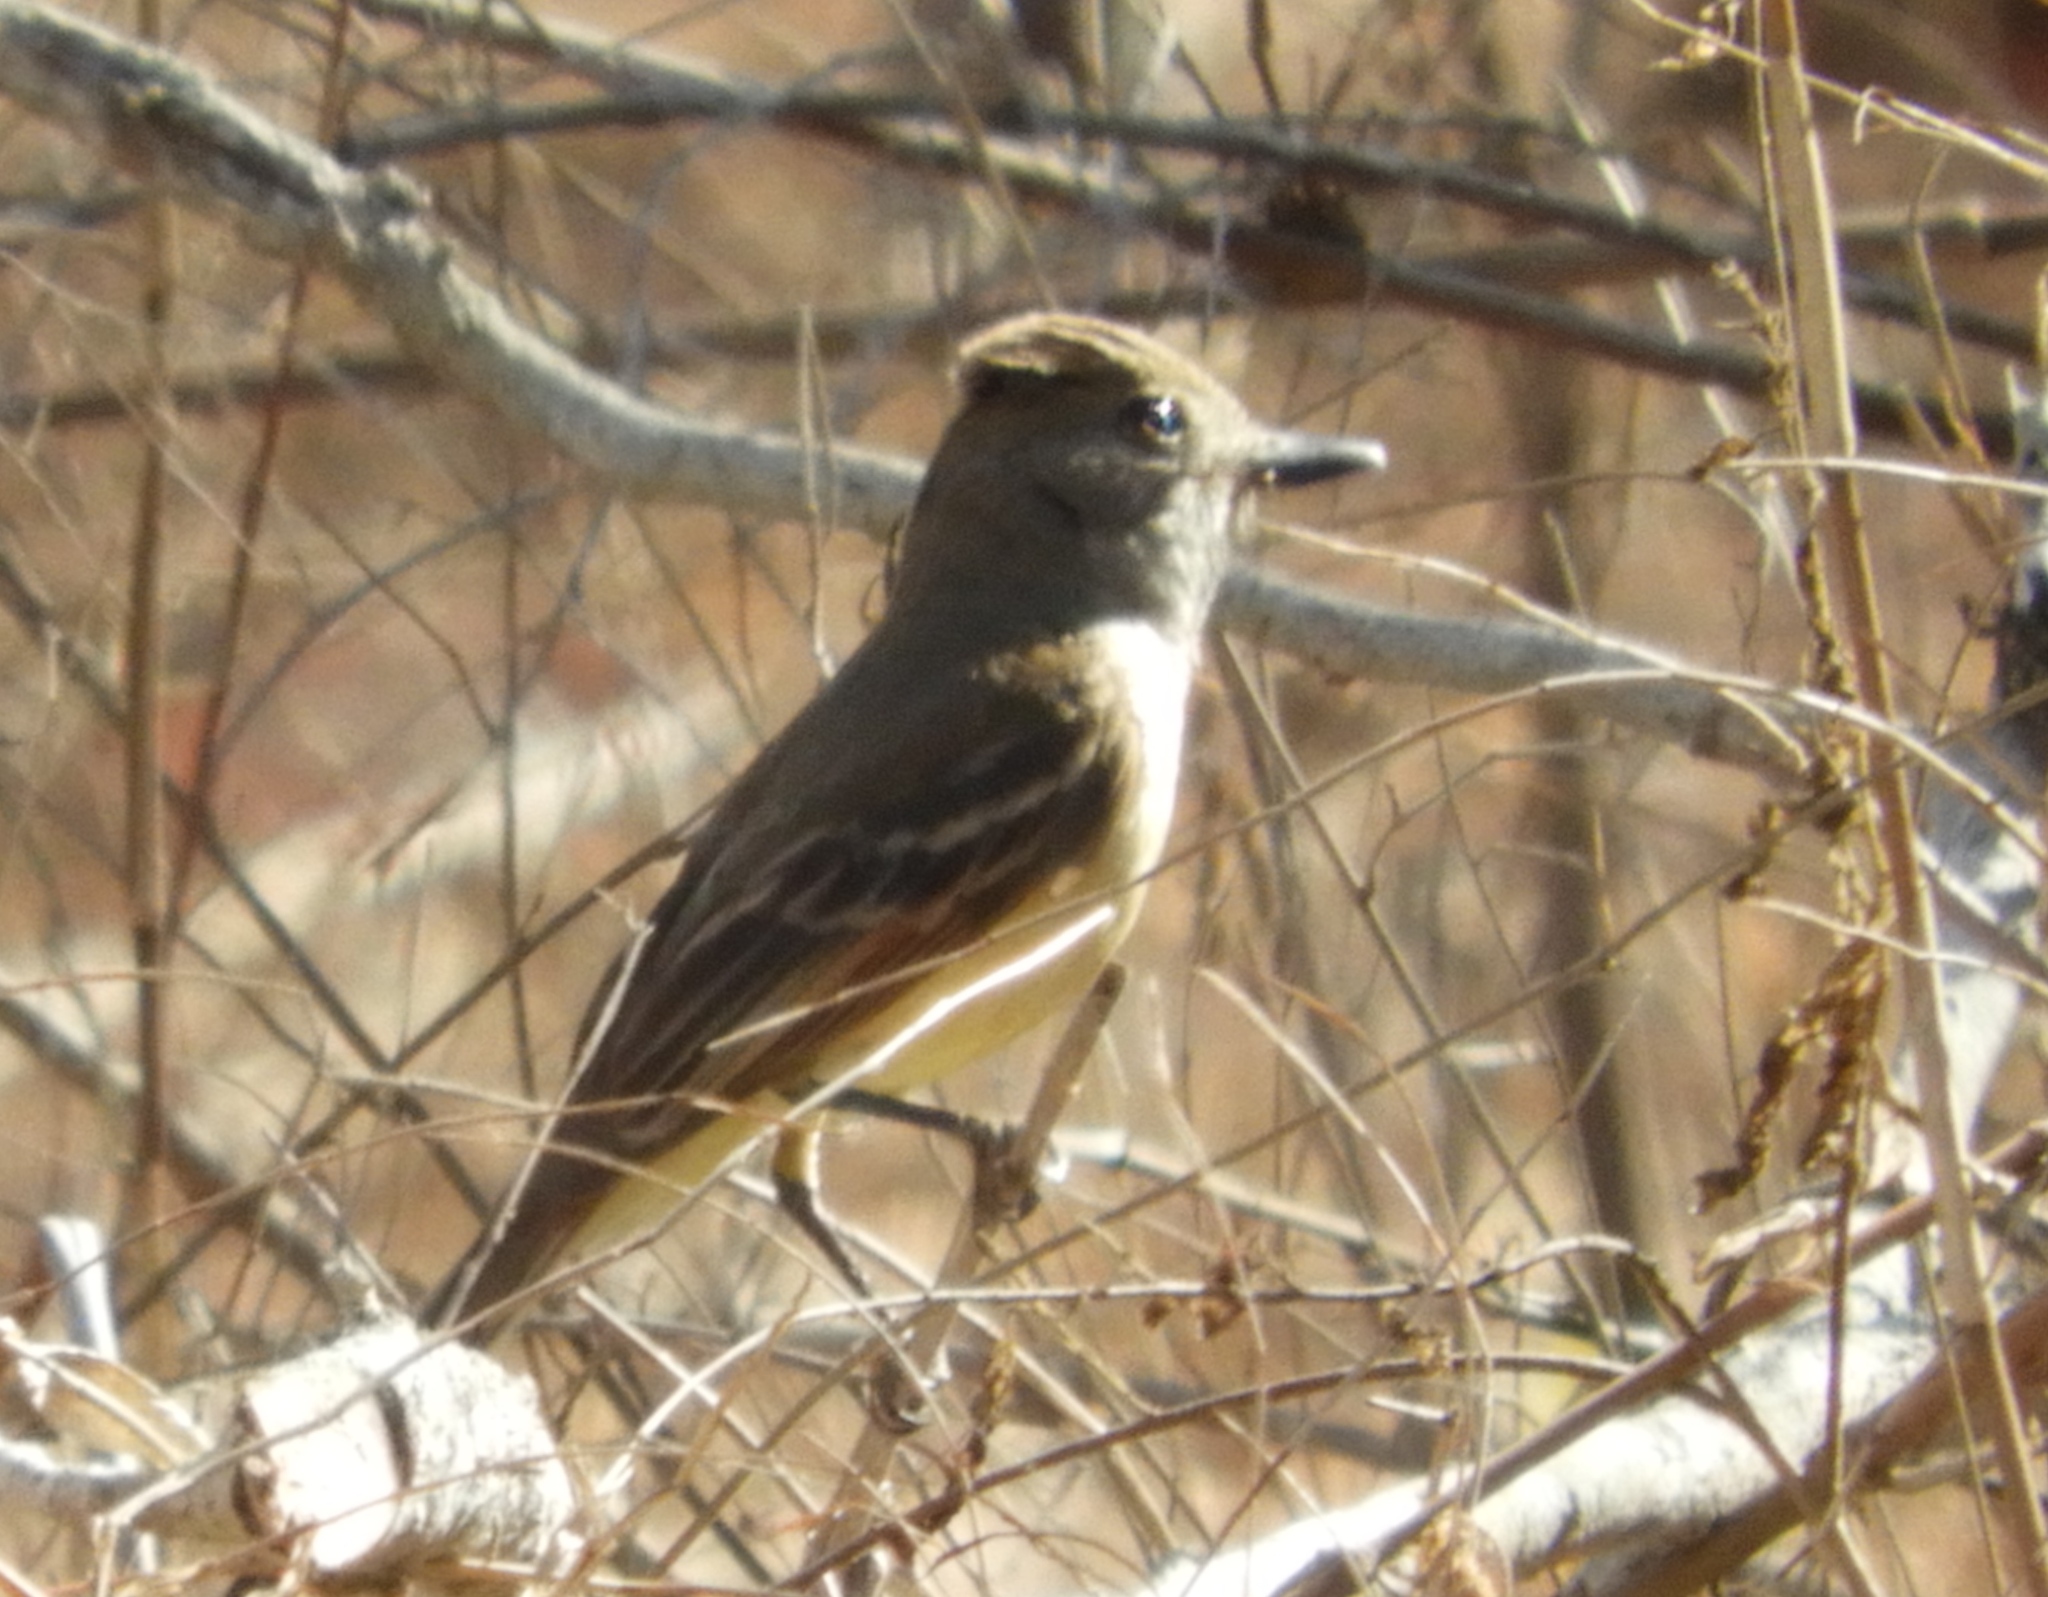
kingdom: Animalia
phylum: Chordata
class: Aves
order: Passeriformes
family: Tyrannidae
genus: Myiarchus
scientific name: Myiarchus
